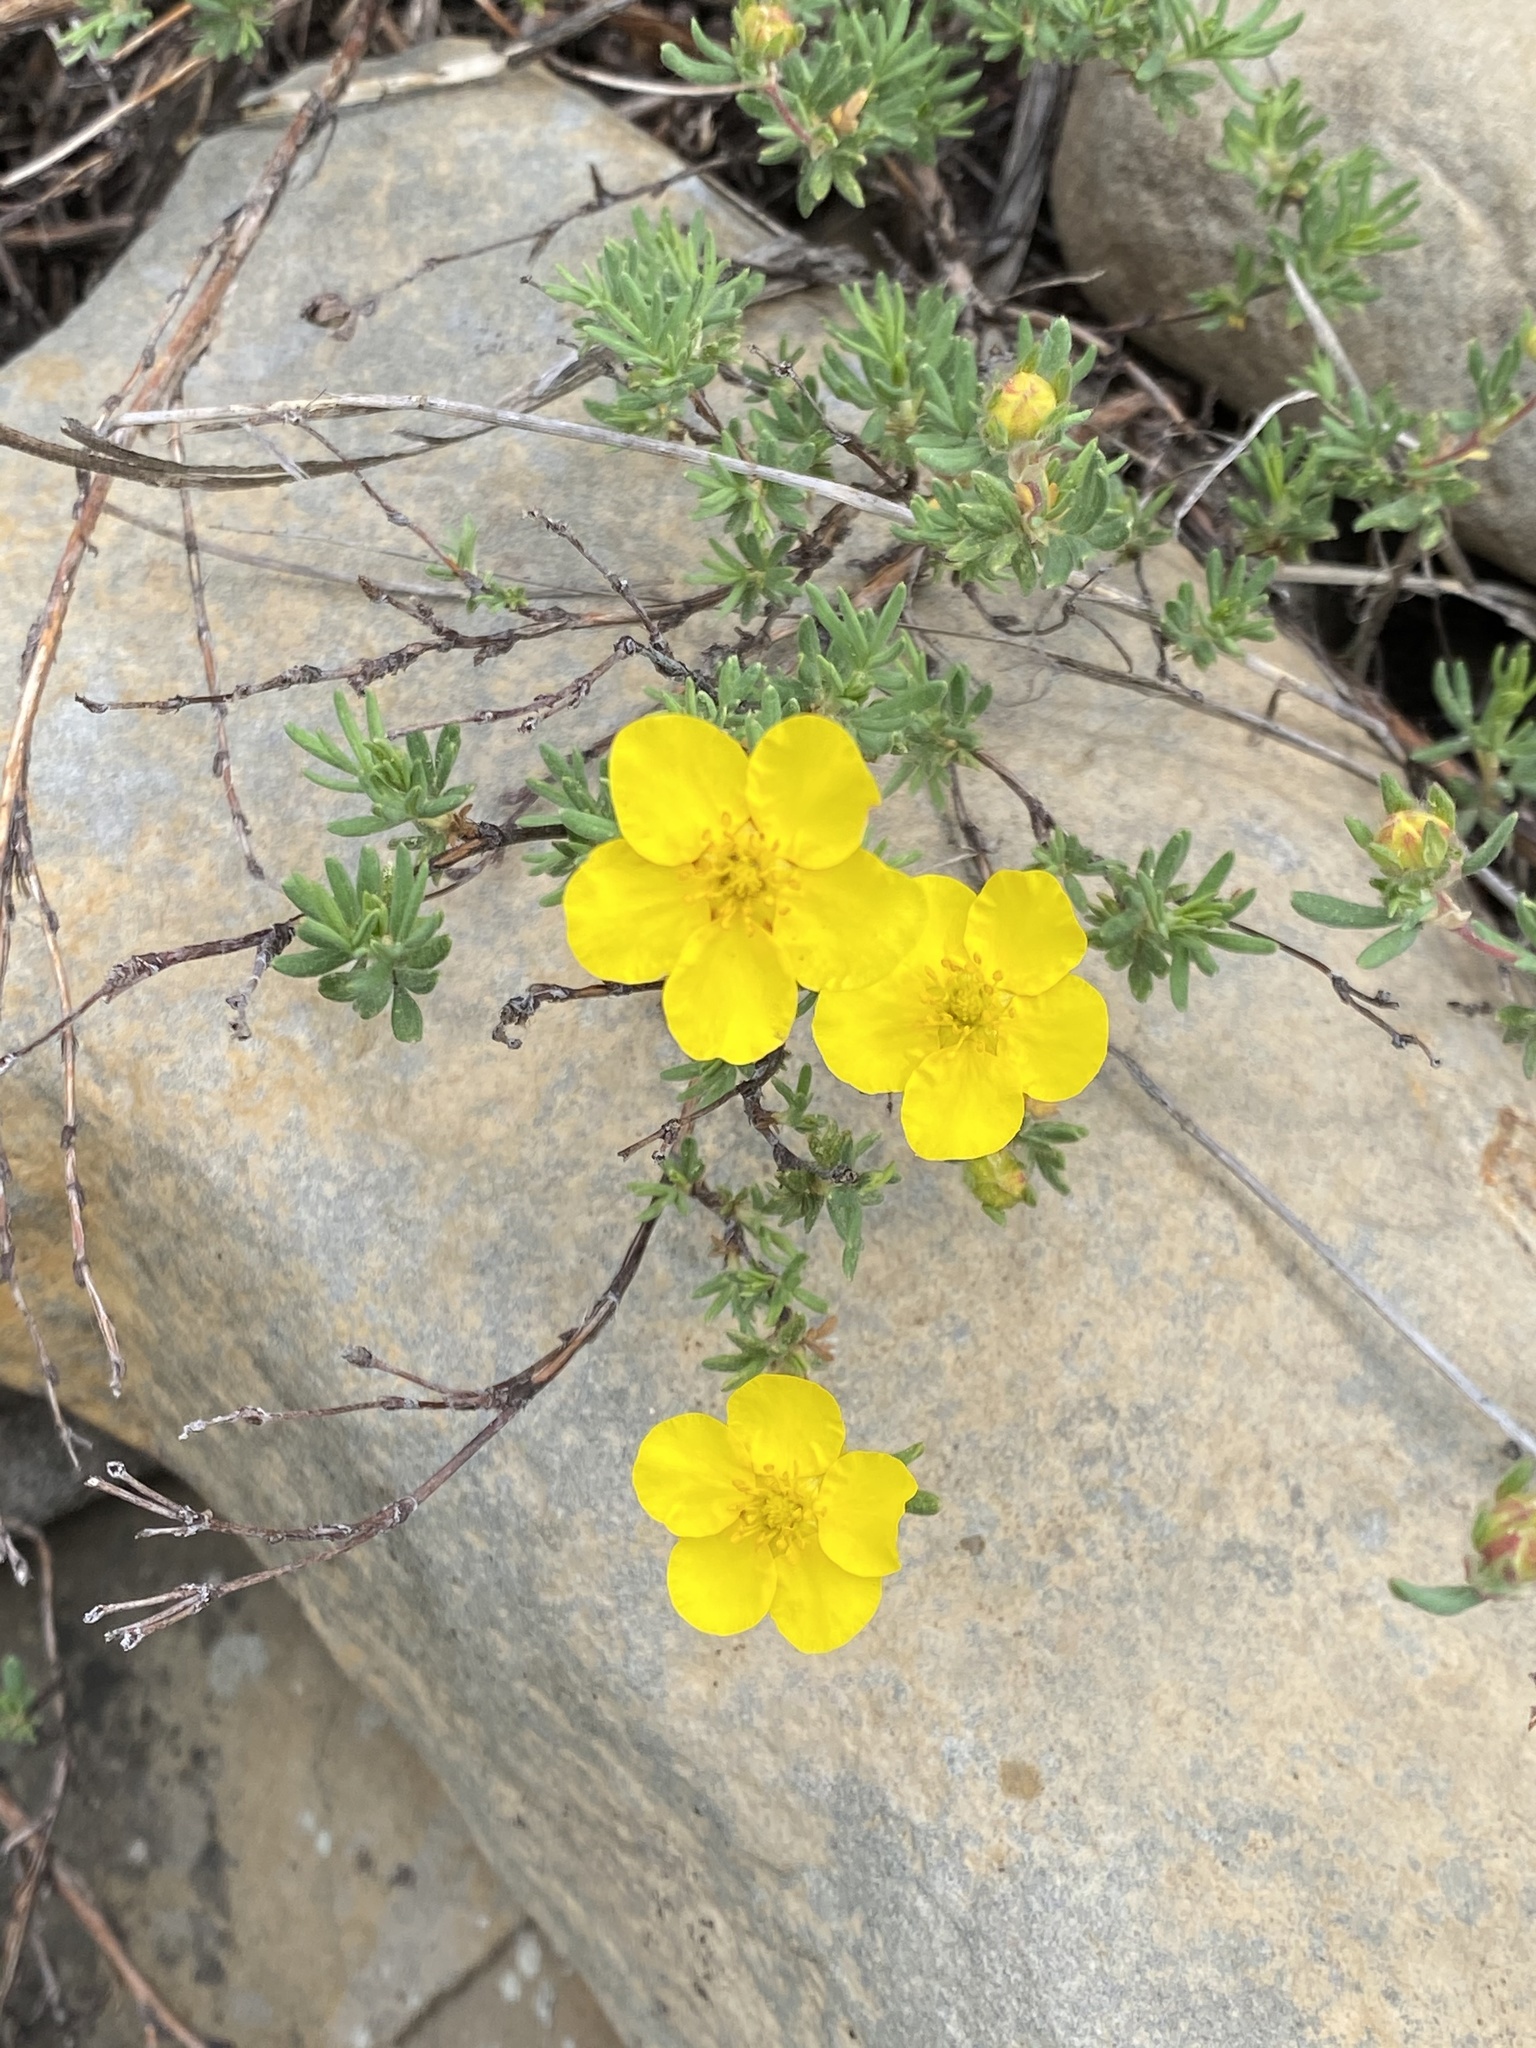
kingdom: Plantae
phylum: Tracheophyta
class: Magnoliopsida
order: Rosales
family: Rosaceae
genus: Dasiphora
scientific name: Dasiphora fruticosa
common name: Shrubby cinquefoil
